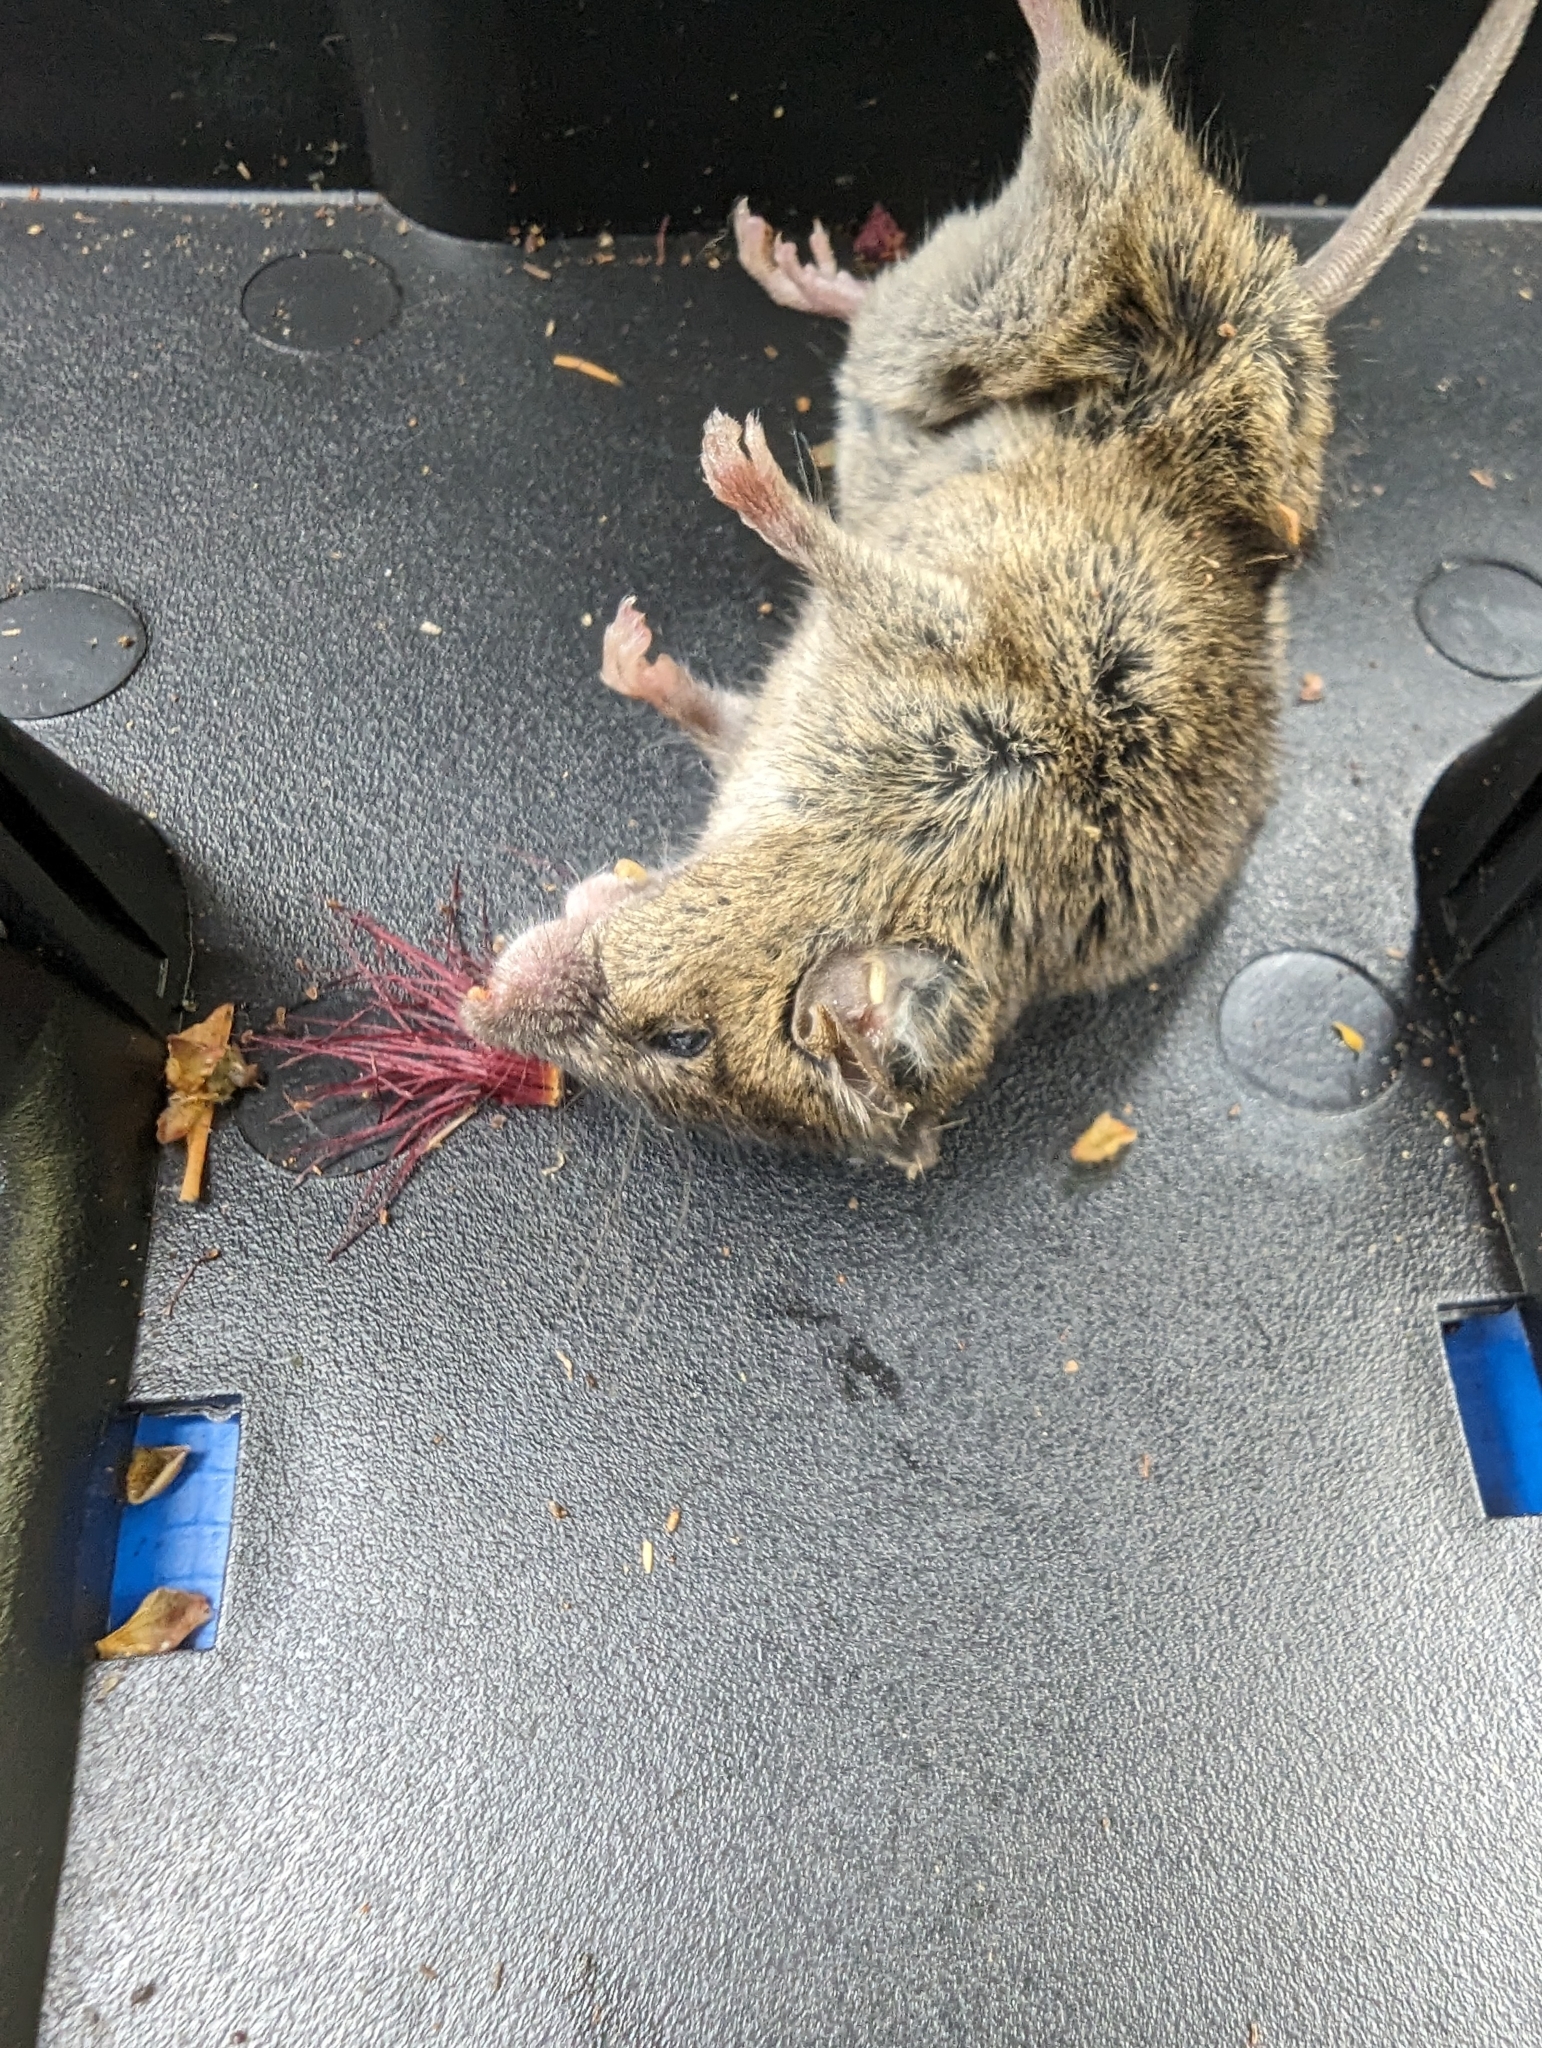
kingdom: Animalia
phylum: Chordata
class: Mammalia
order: Rodentia
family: Muridae
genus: Mus
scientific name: Mus musculus
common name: House mouse
